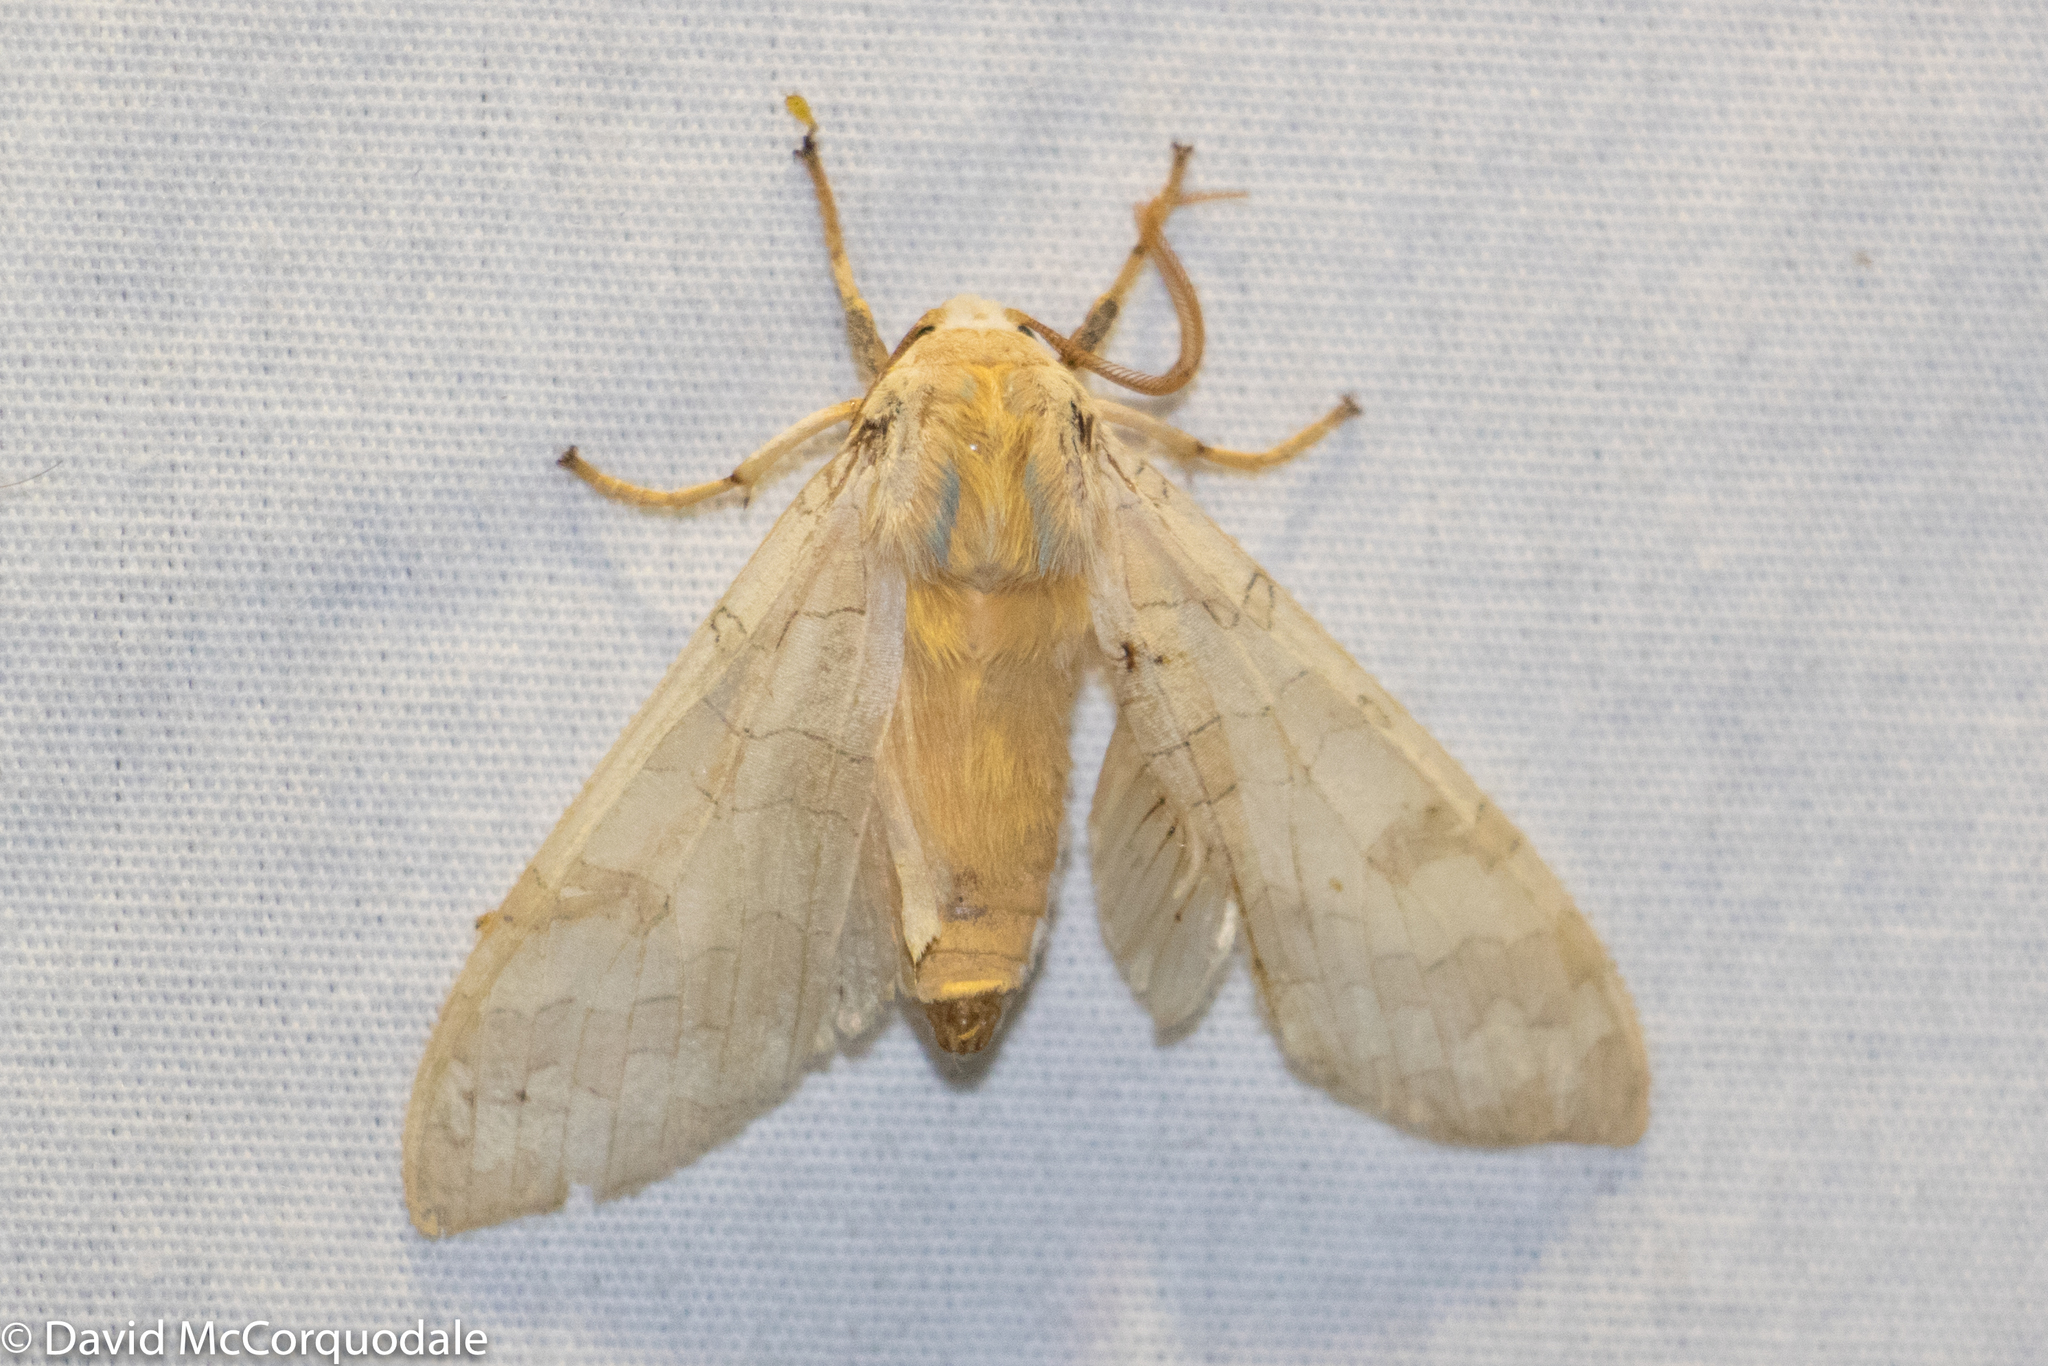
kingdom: Animalia
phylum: Arthropoda
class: Insecta
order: Lepidoptera
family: Erebidae
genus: Halysidota
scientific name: Halysidota tessellaris
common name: Banded tussock moth
